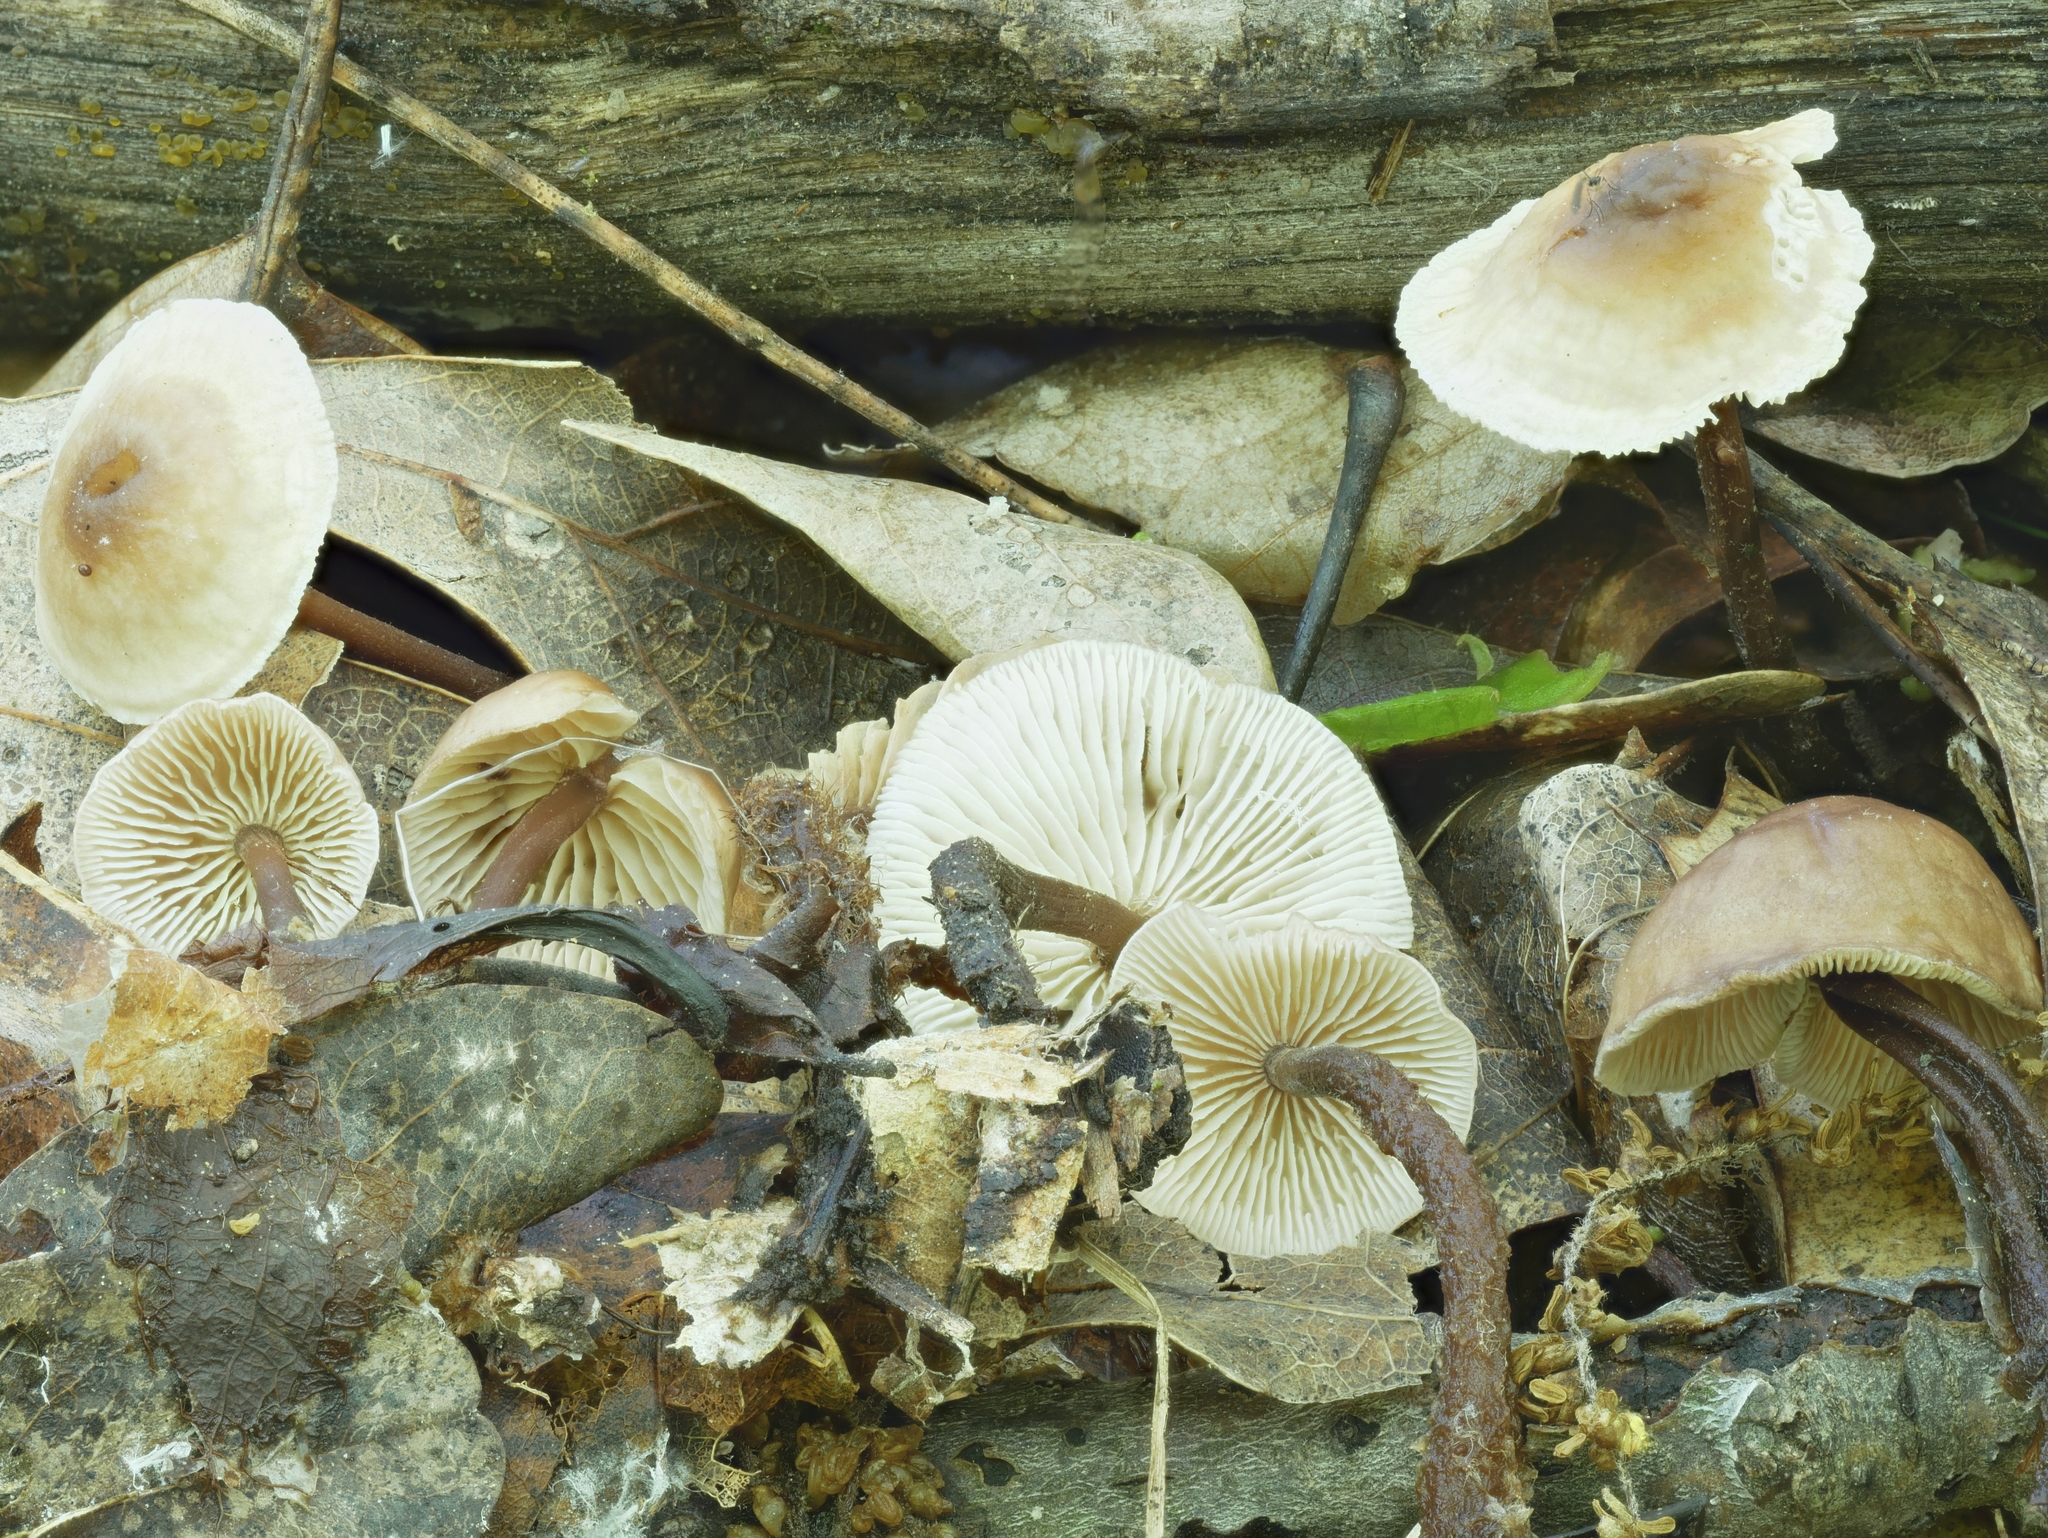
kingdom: Fungi
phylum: Basidiomycota
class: Agaricomycetes
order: Agaricales
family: Omphalotaceae
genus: Gymnopus
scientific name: Gymnopus semihirtipes
